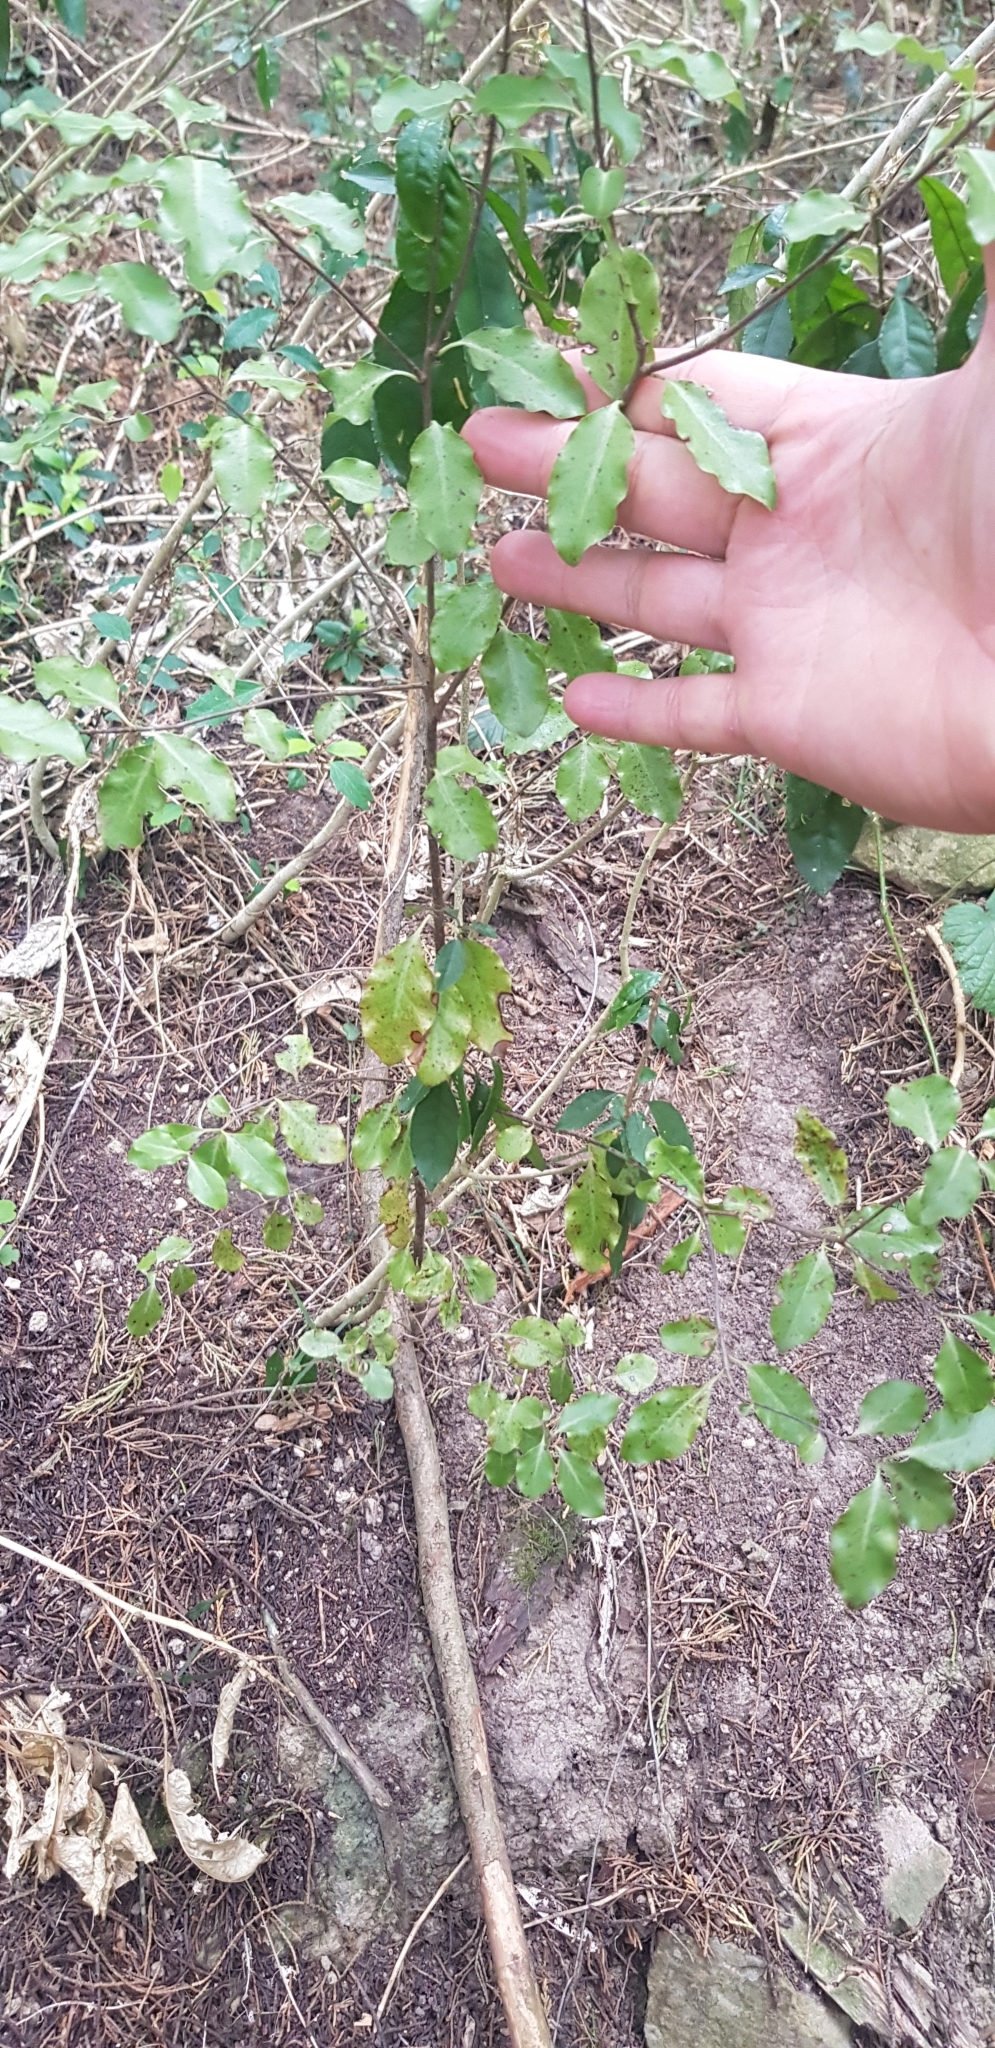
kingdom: Plantae
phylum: Tracheophyta
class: Magnoliopsida
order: Apiales
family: Pittosporaceae
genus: Pittosporum
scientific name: Pittosporum tenuifolium
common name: Kohuhu
